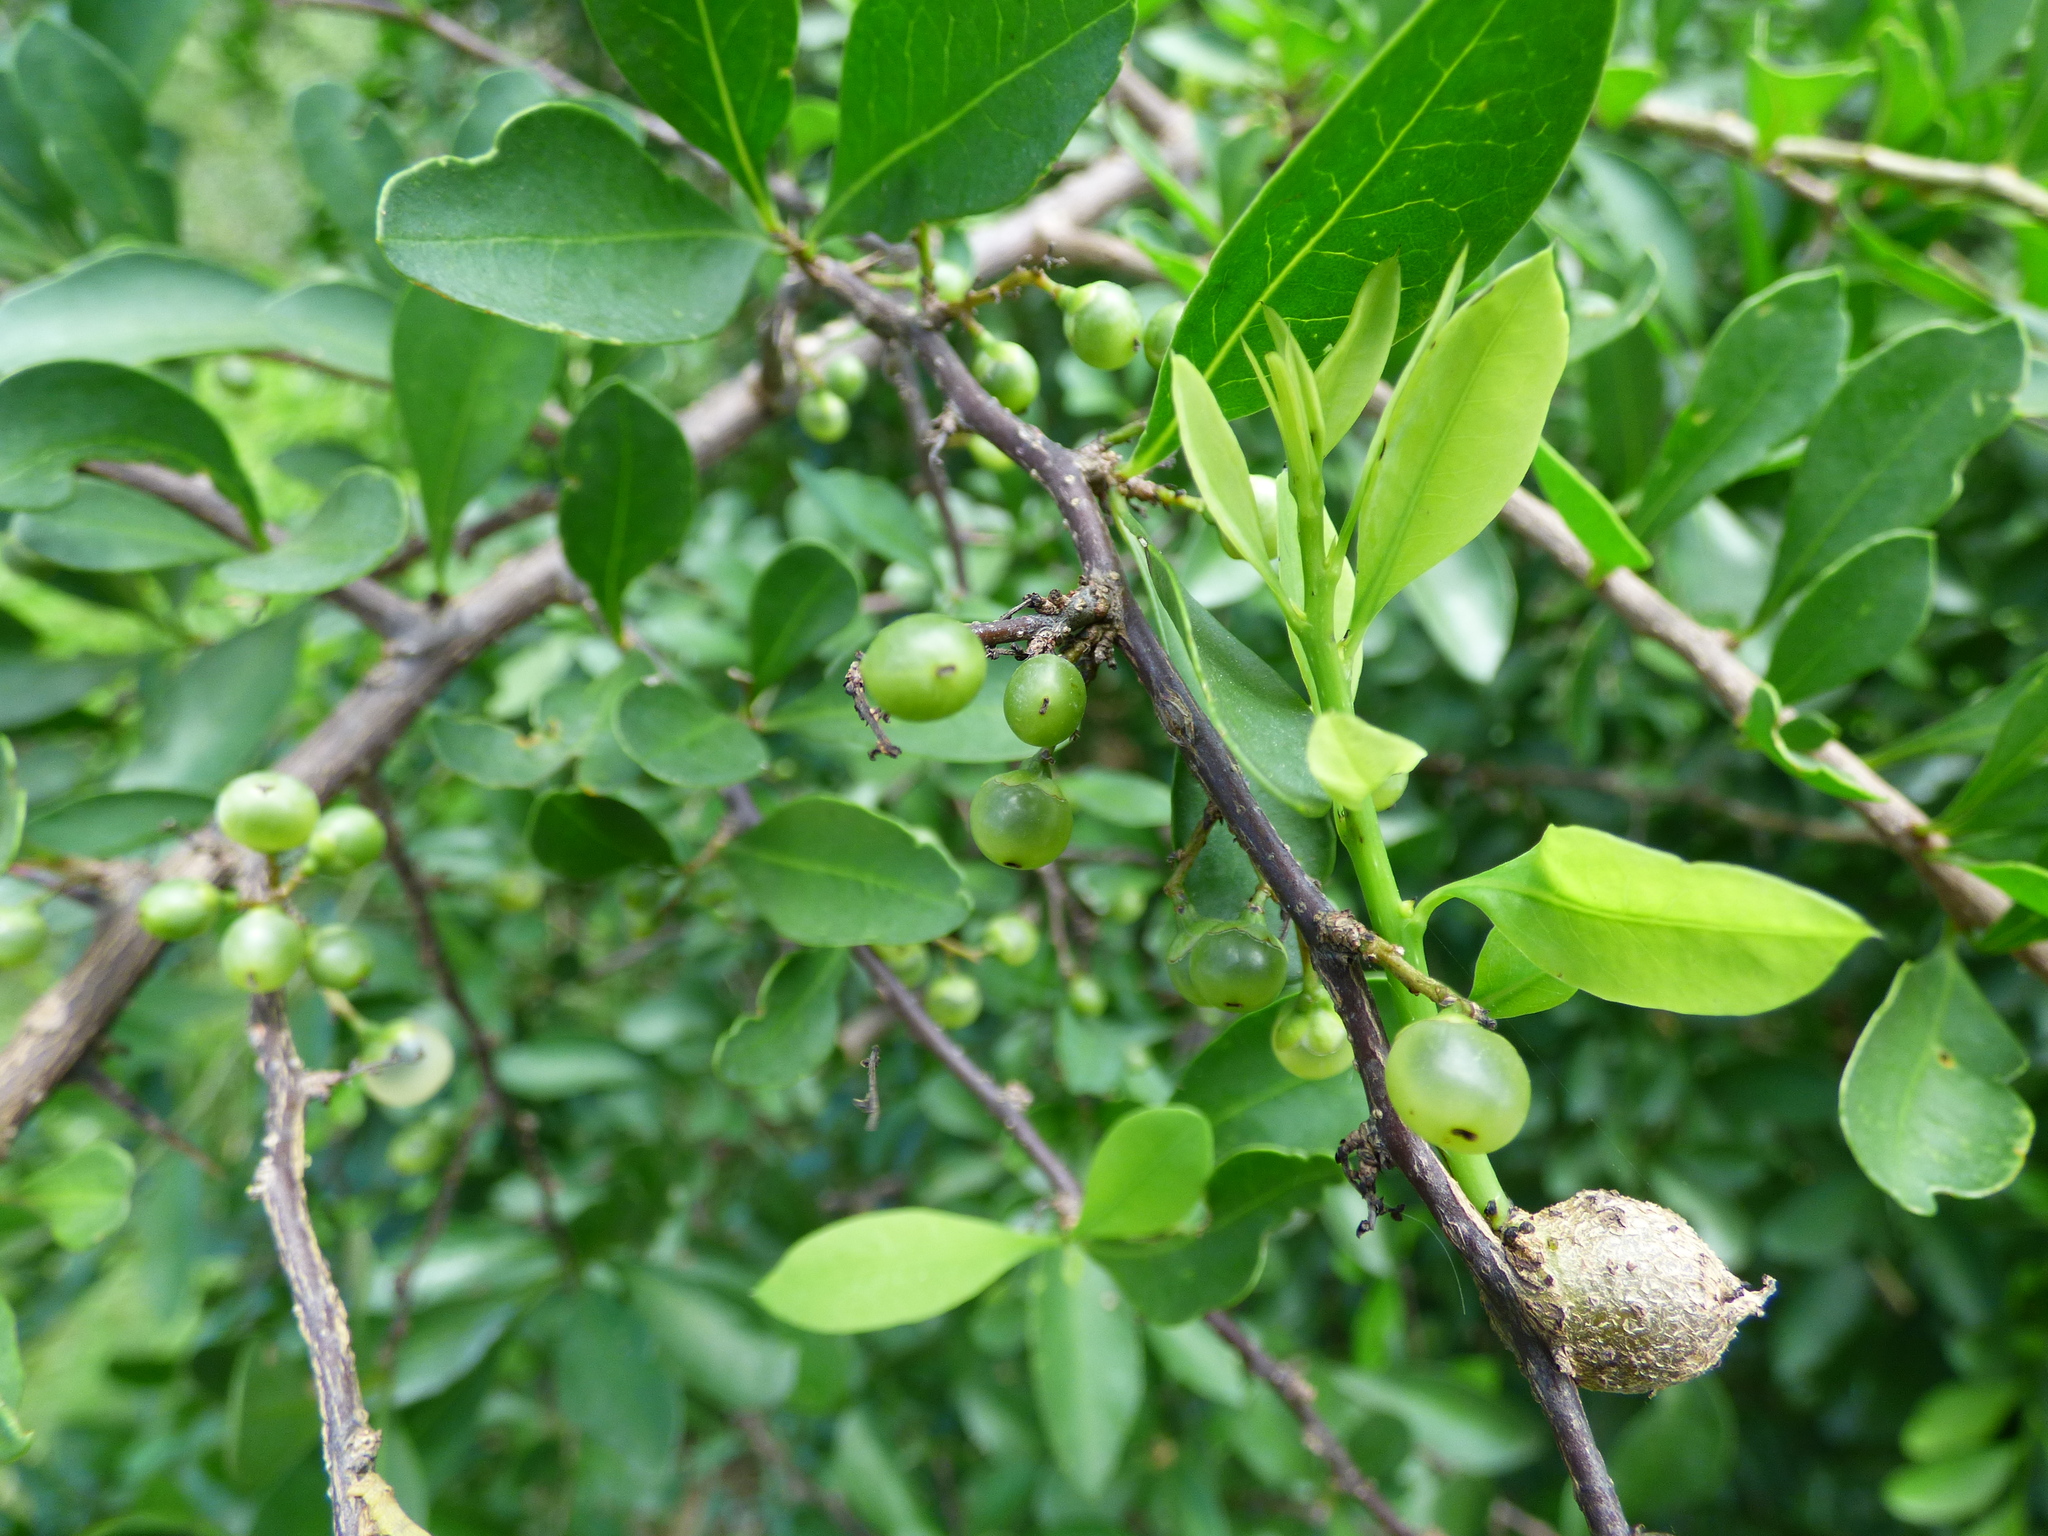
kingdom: Plantae
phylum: Tracheophyta
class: Magnoliopsida
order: Rosales
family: Cannabaceae
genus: Celtis
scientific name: Celtis pallida
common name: Desert hackberry
